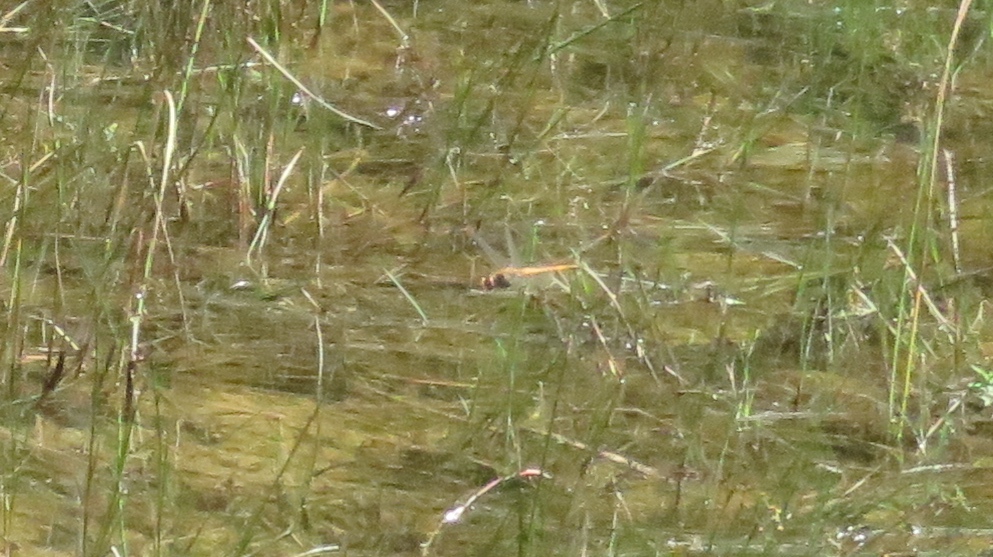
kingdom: Animalia
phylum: Arthropoda
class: Insecta
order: Odonata
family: Libellulidae
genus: Pantala
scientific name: Pantala flavescens
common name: Wandering glider
